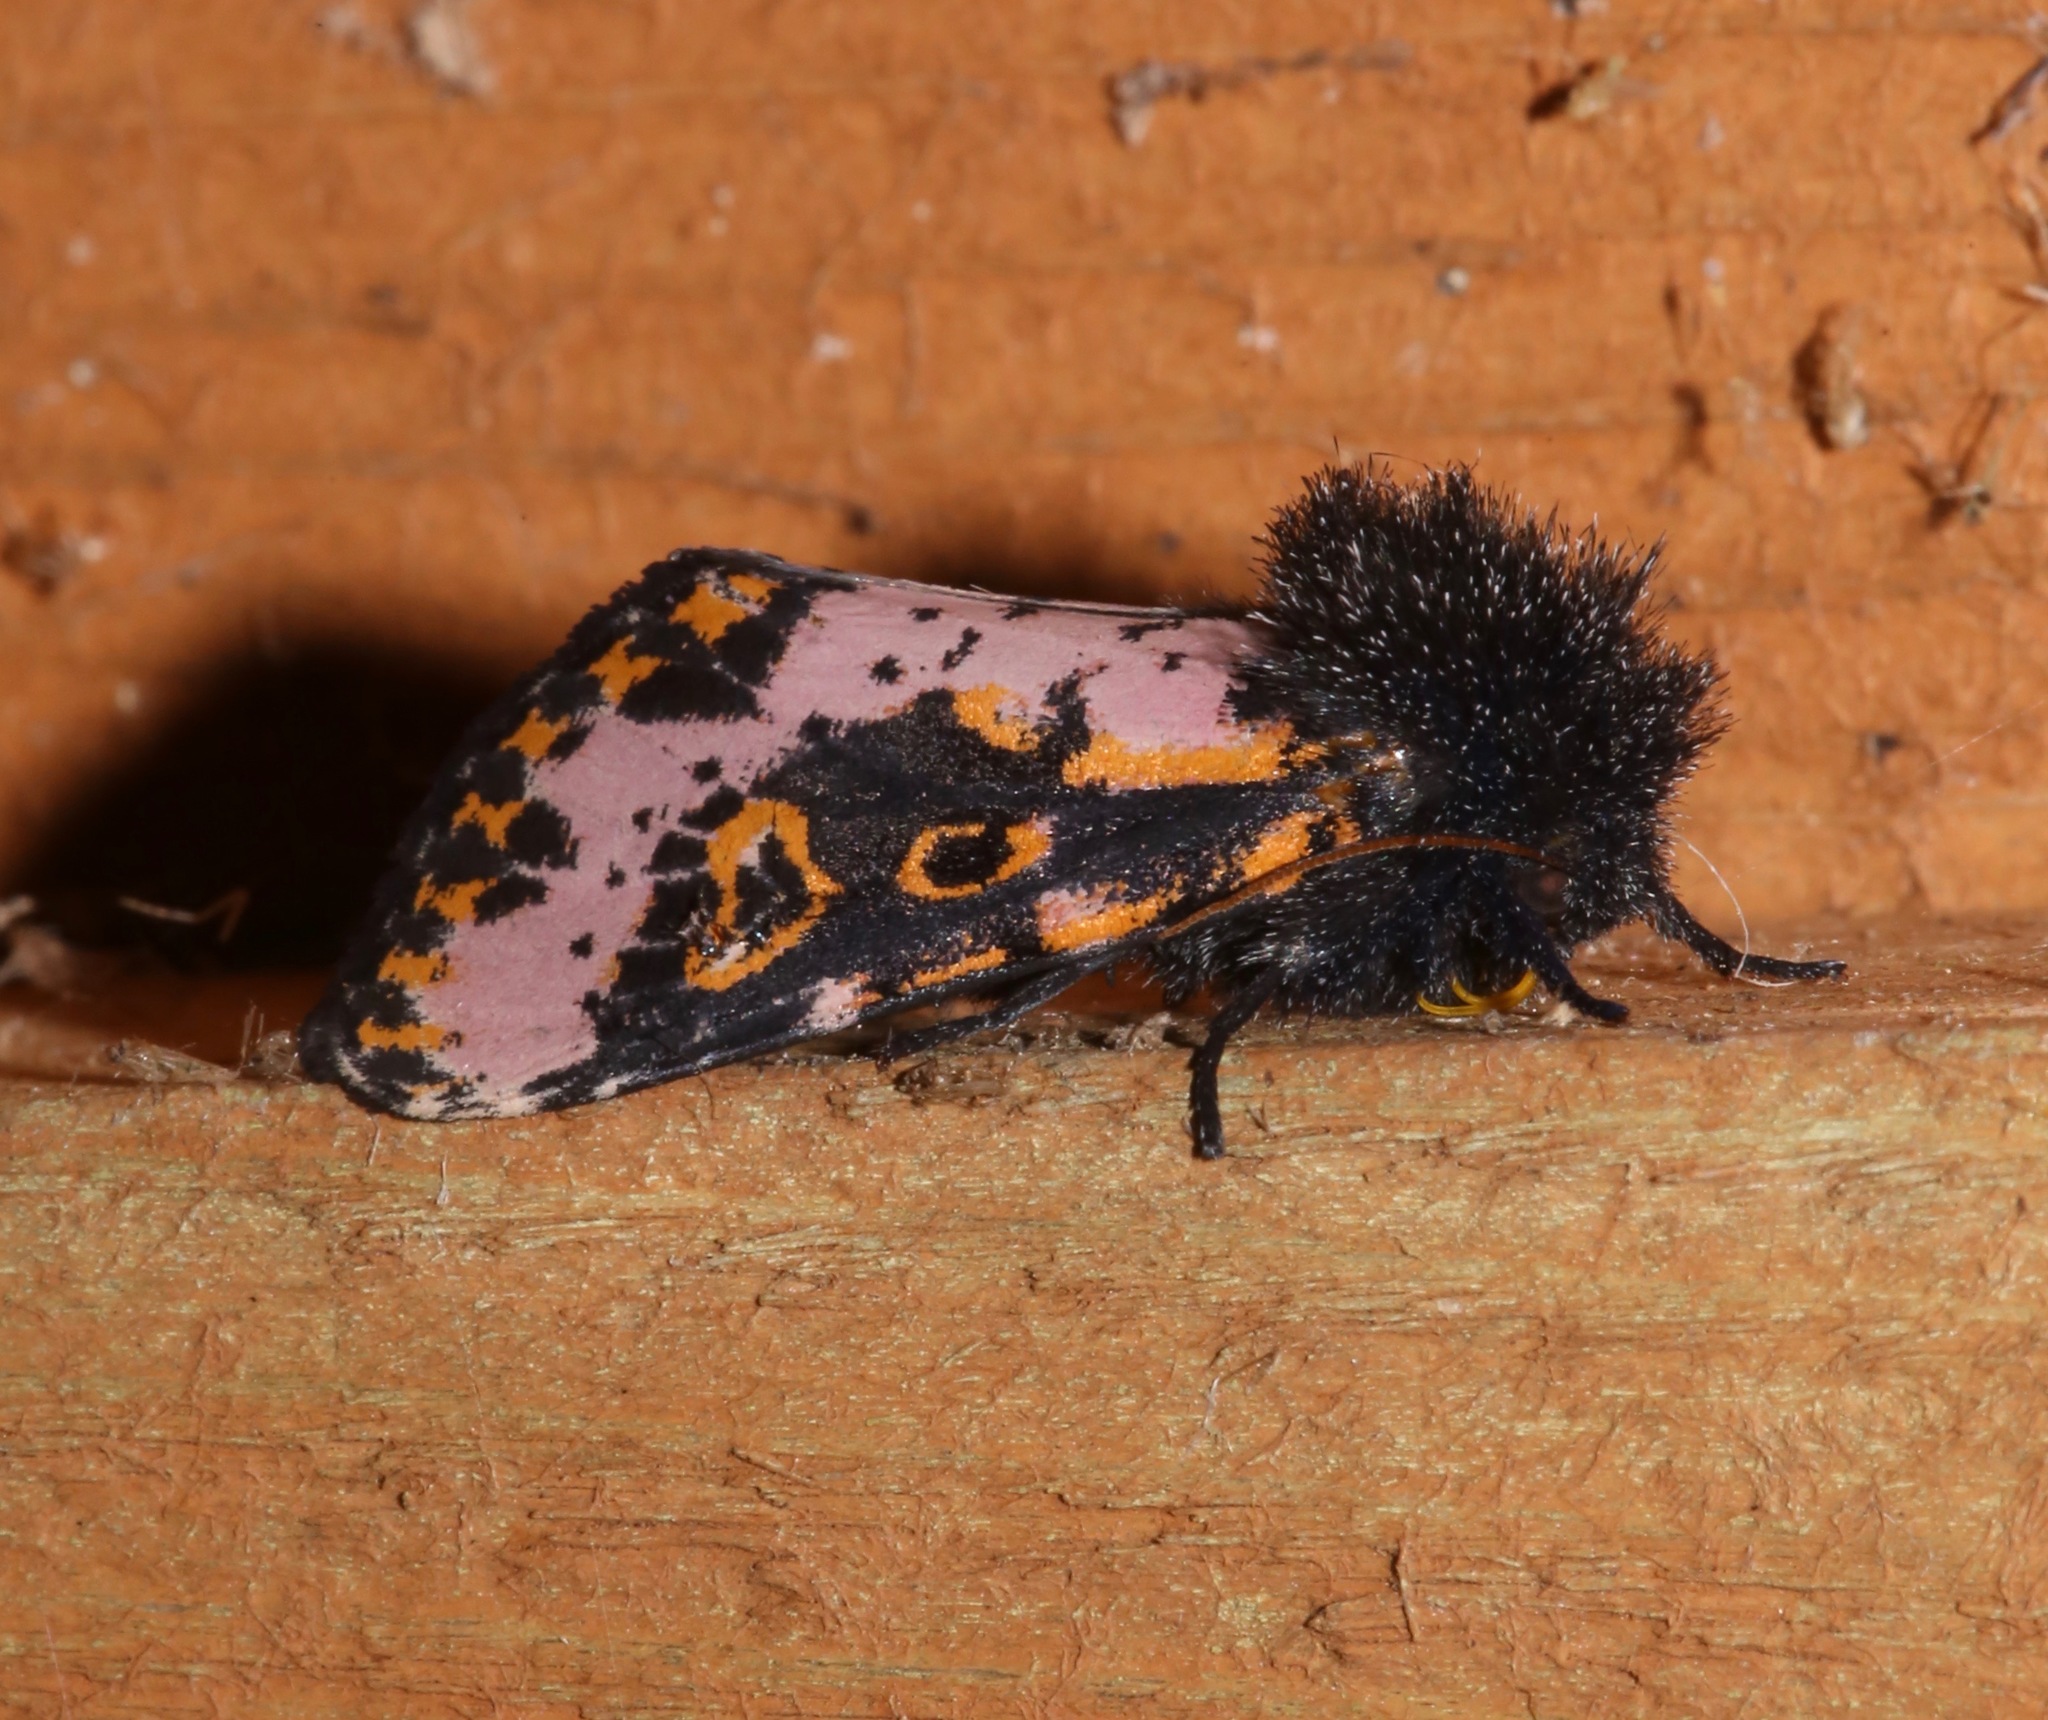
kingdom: Animalia
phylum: Arthropoda
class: Insecta
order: Lepidoptera
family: Noctuidae
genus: Xanthopastis
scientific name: Xanthopastis regnatrix
